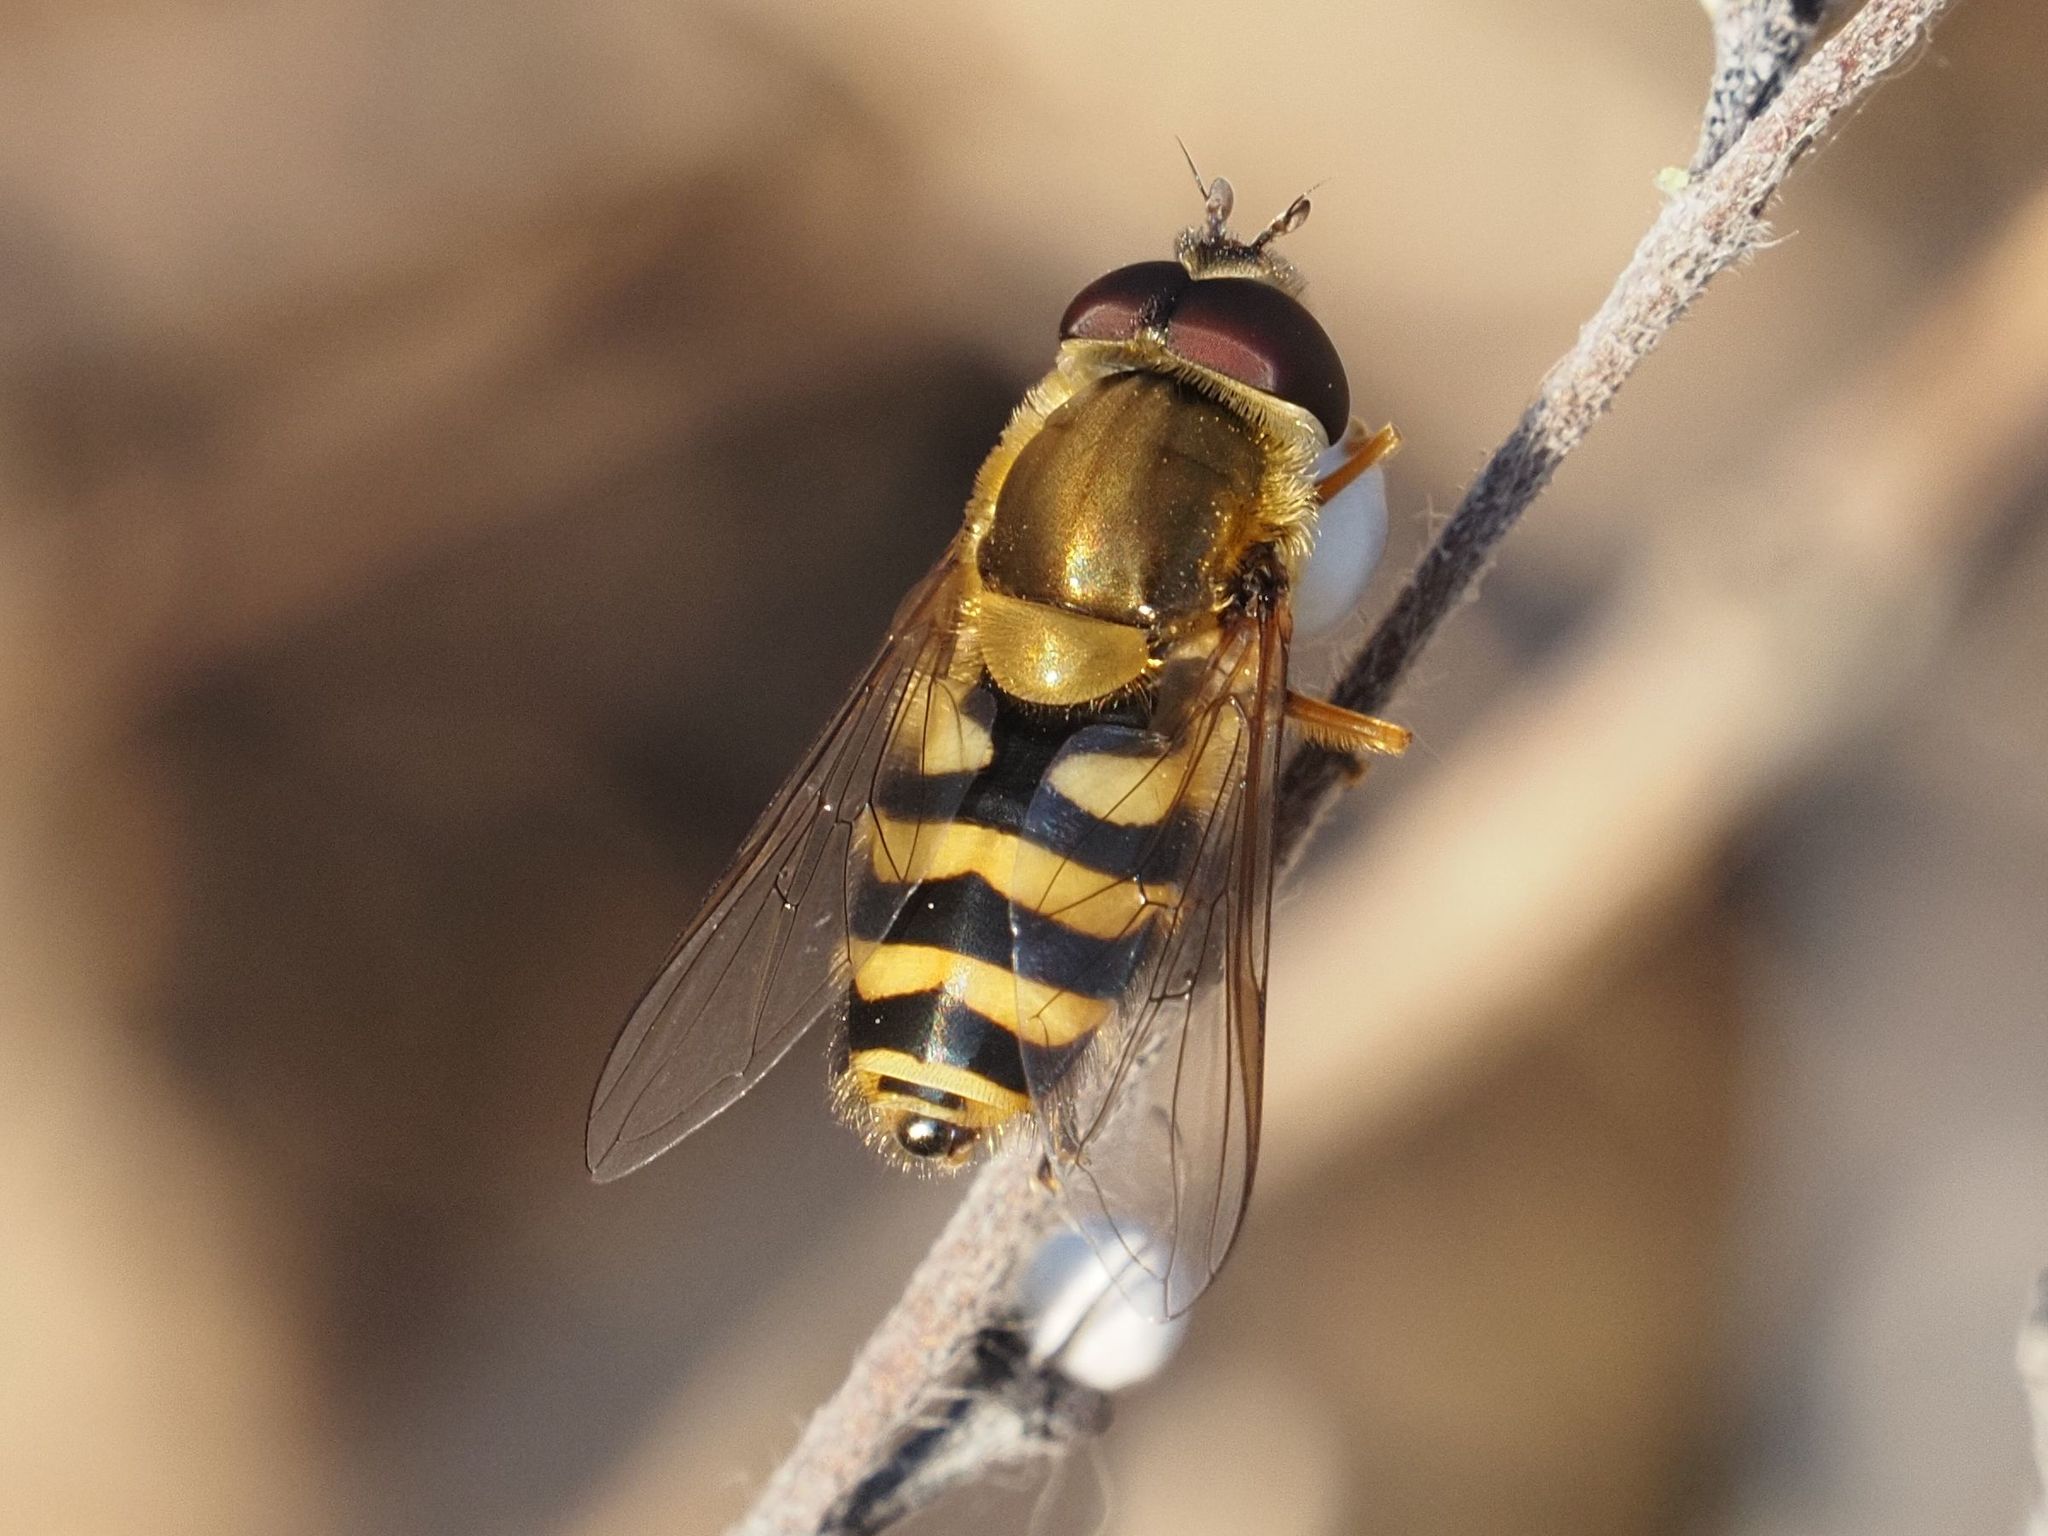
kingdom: Animalia
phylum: Arthropoda
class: Insecta
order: Diptera
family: Syrphidae
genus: Syrphus
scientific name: Syrphus ribesii
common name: Common flower fly
